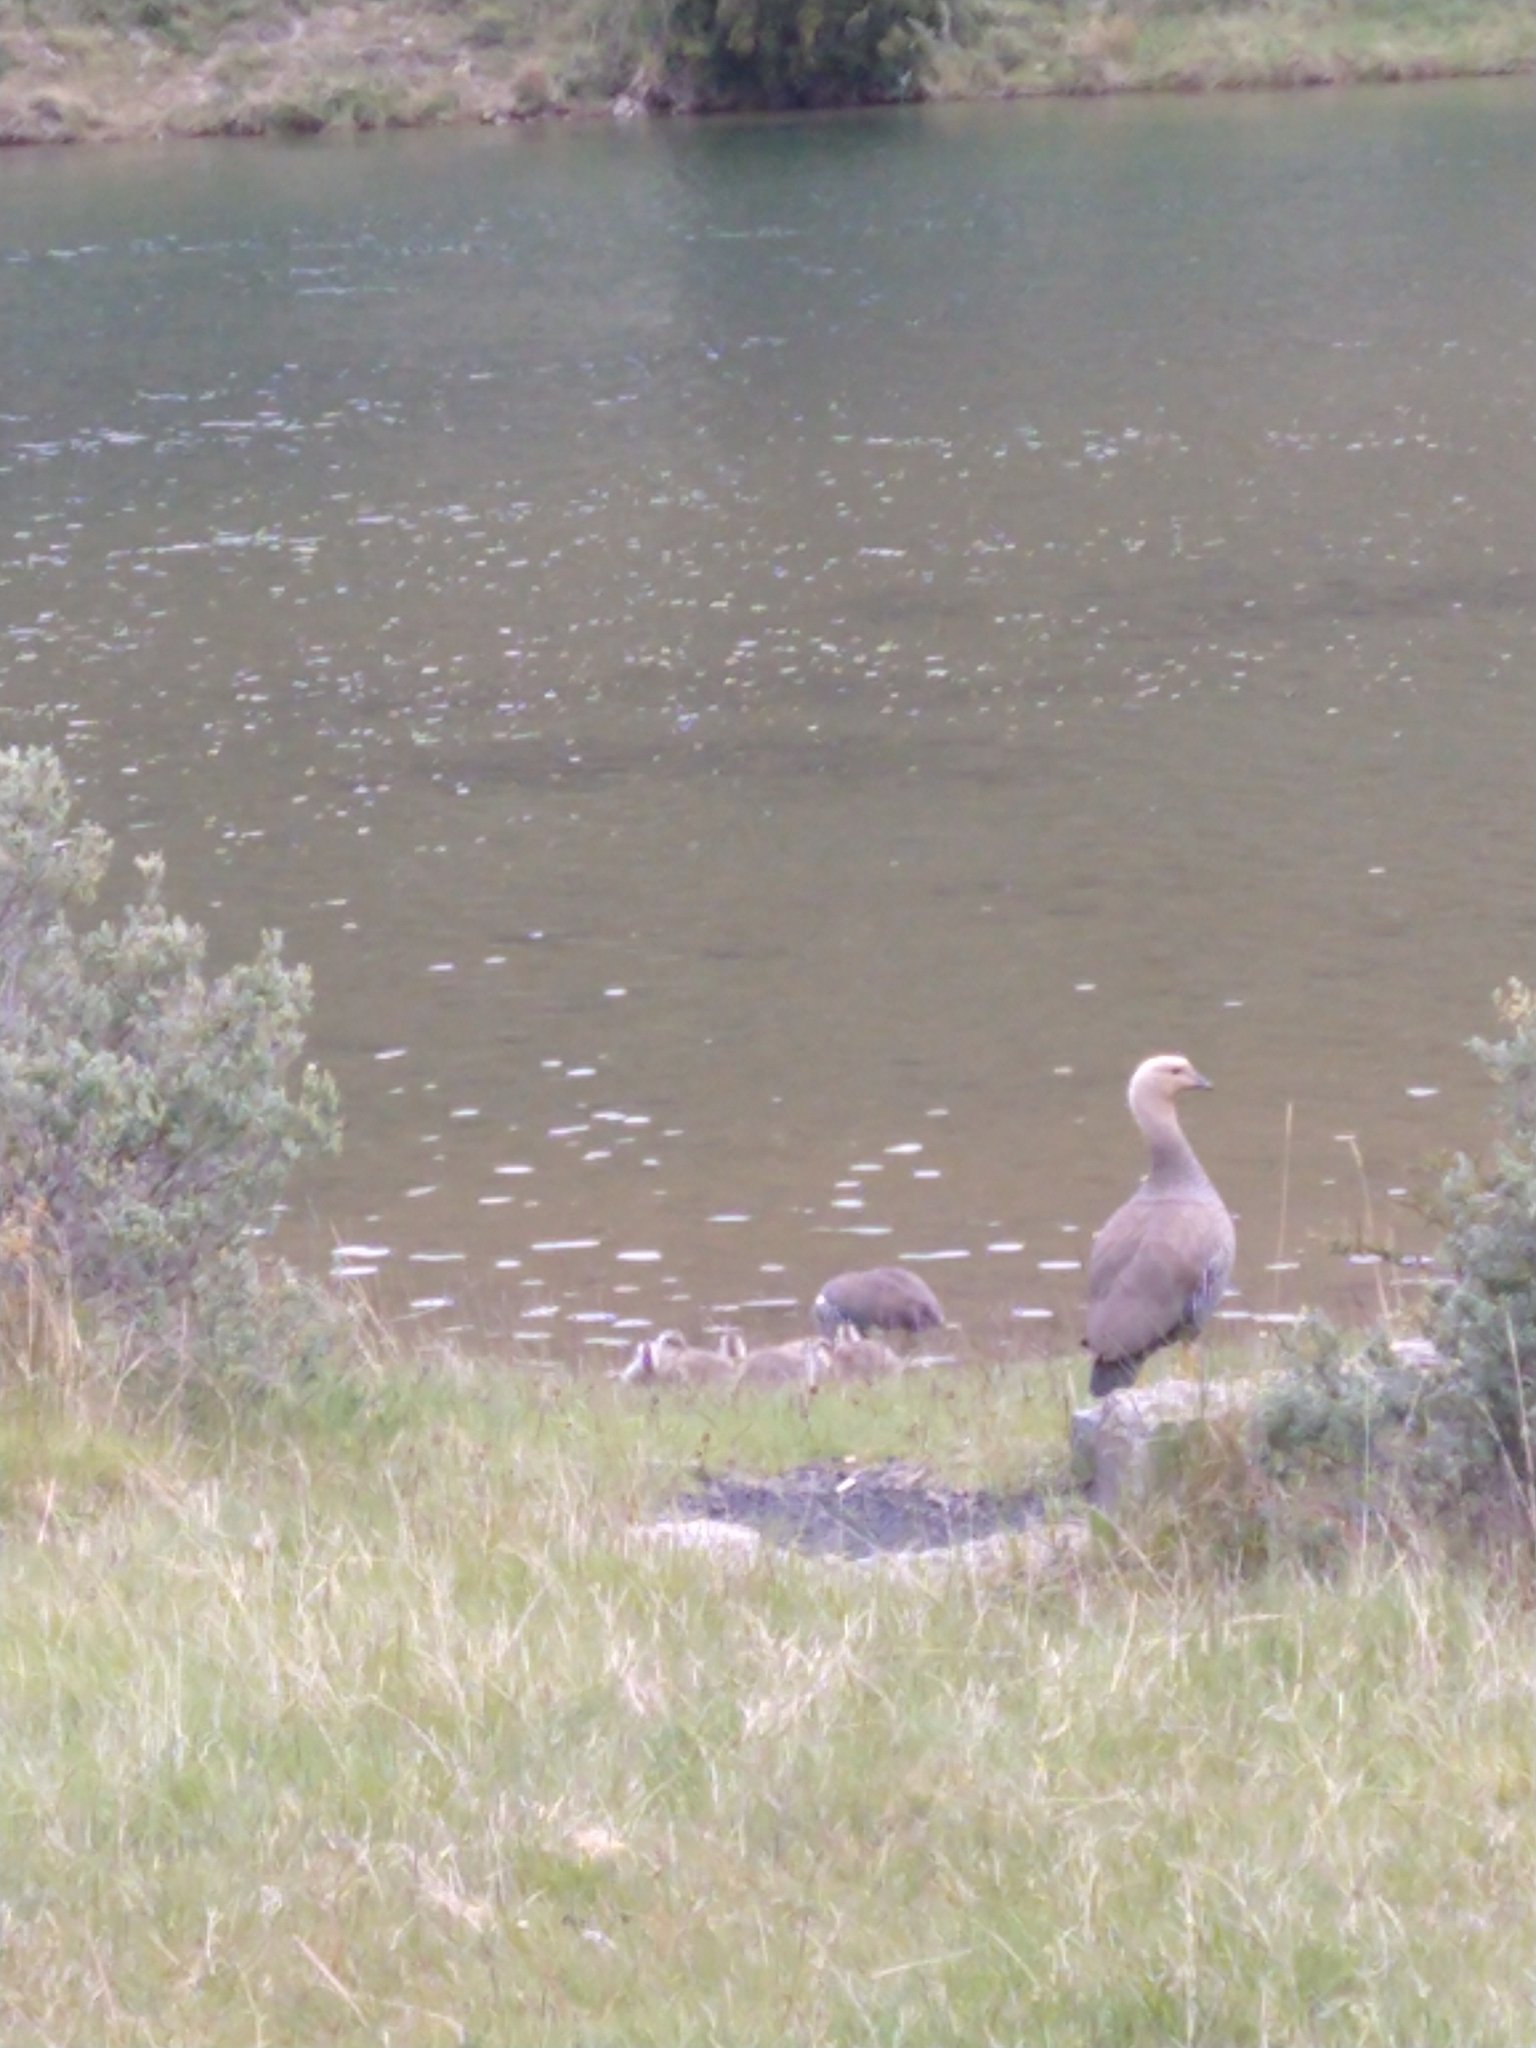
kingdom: Animalia
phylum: Chordata
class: Aves
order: Anseriformes
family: Anatidae
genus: Chloephaga
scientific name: Chloephaga picta
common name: Upland goose
